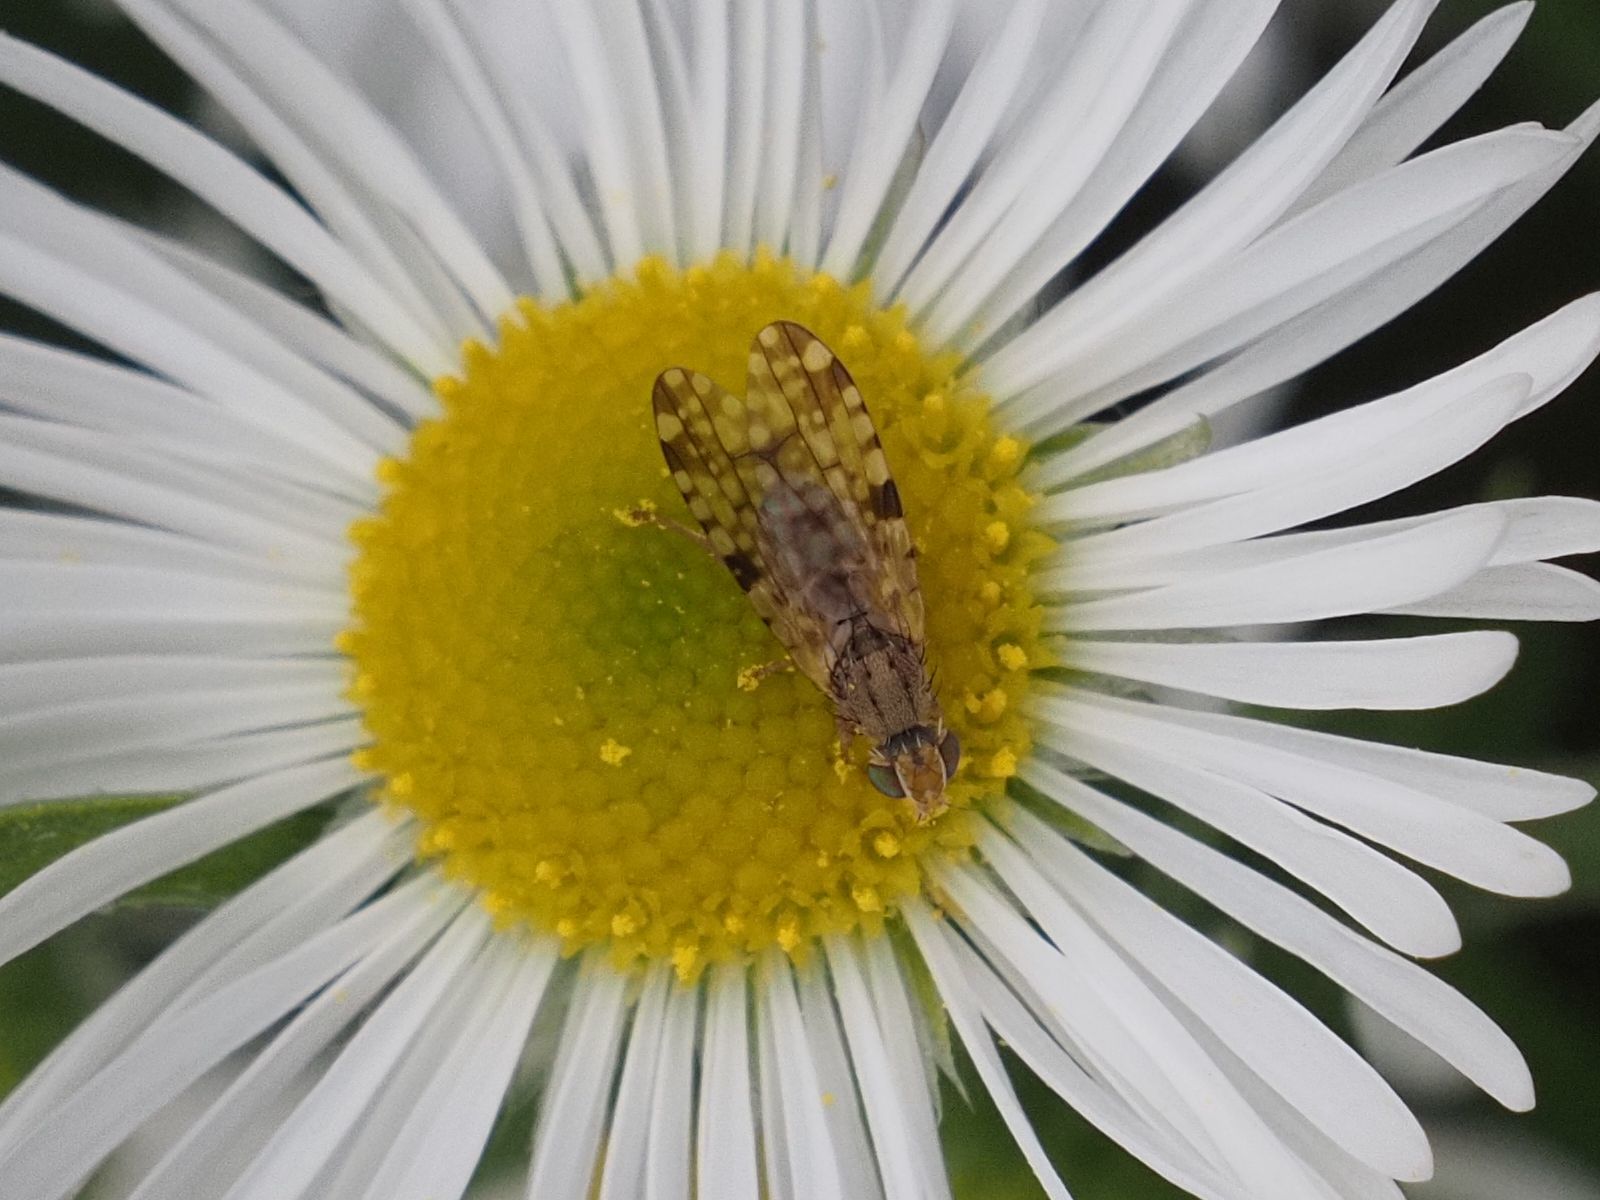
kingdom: Animalia
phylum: Arthropoda
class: Insecta
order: Diptera
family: Tephritidae
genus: Dioxyna
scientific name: Dioxyna bidentis
